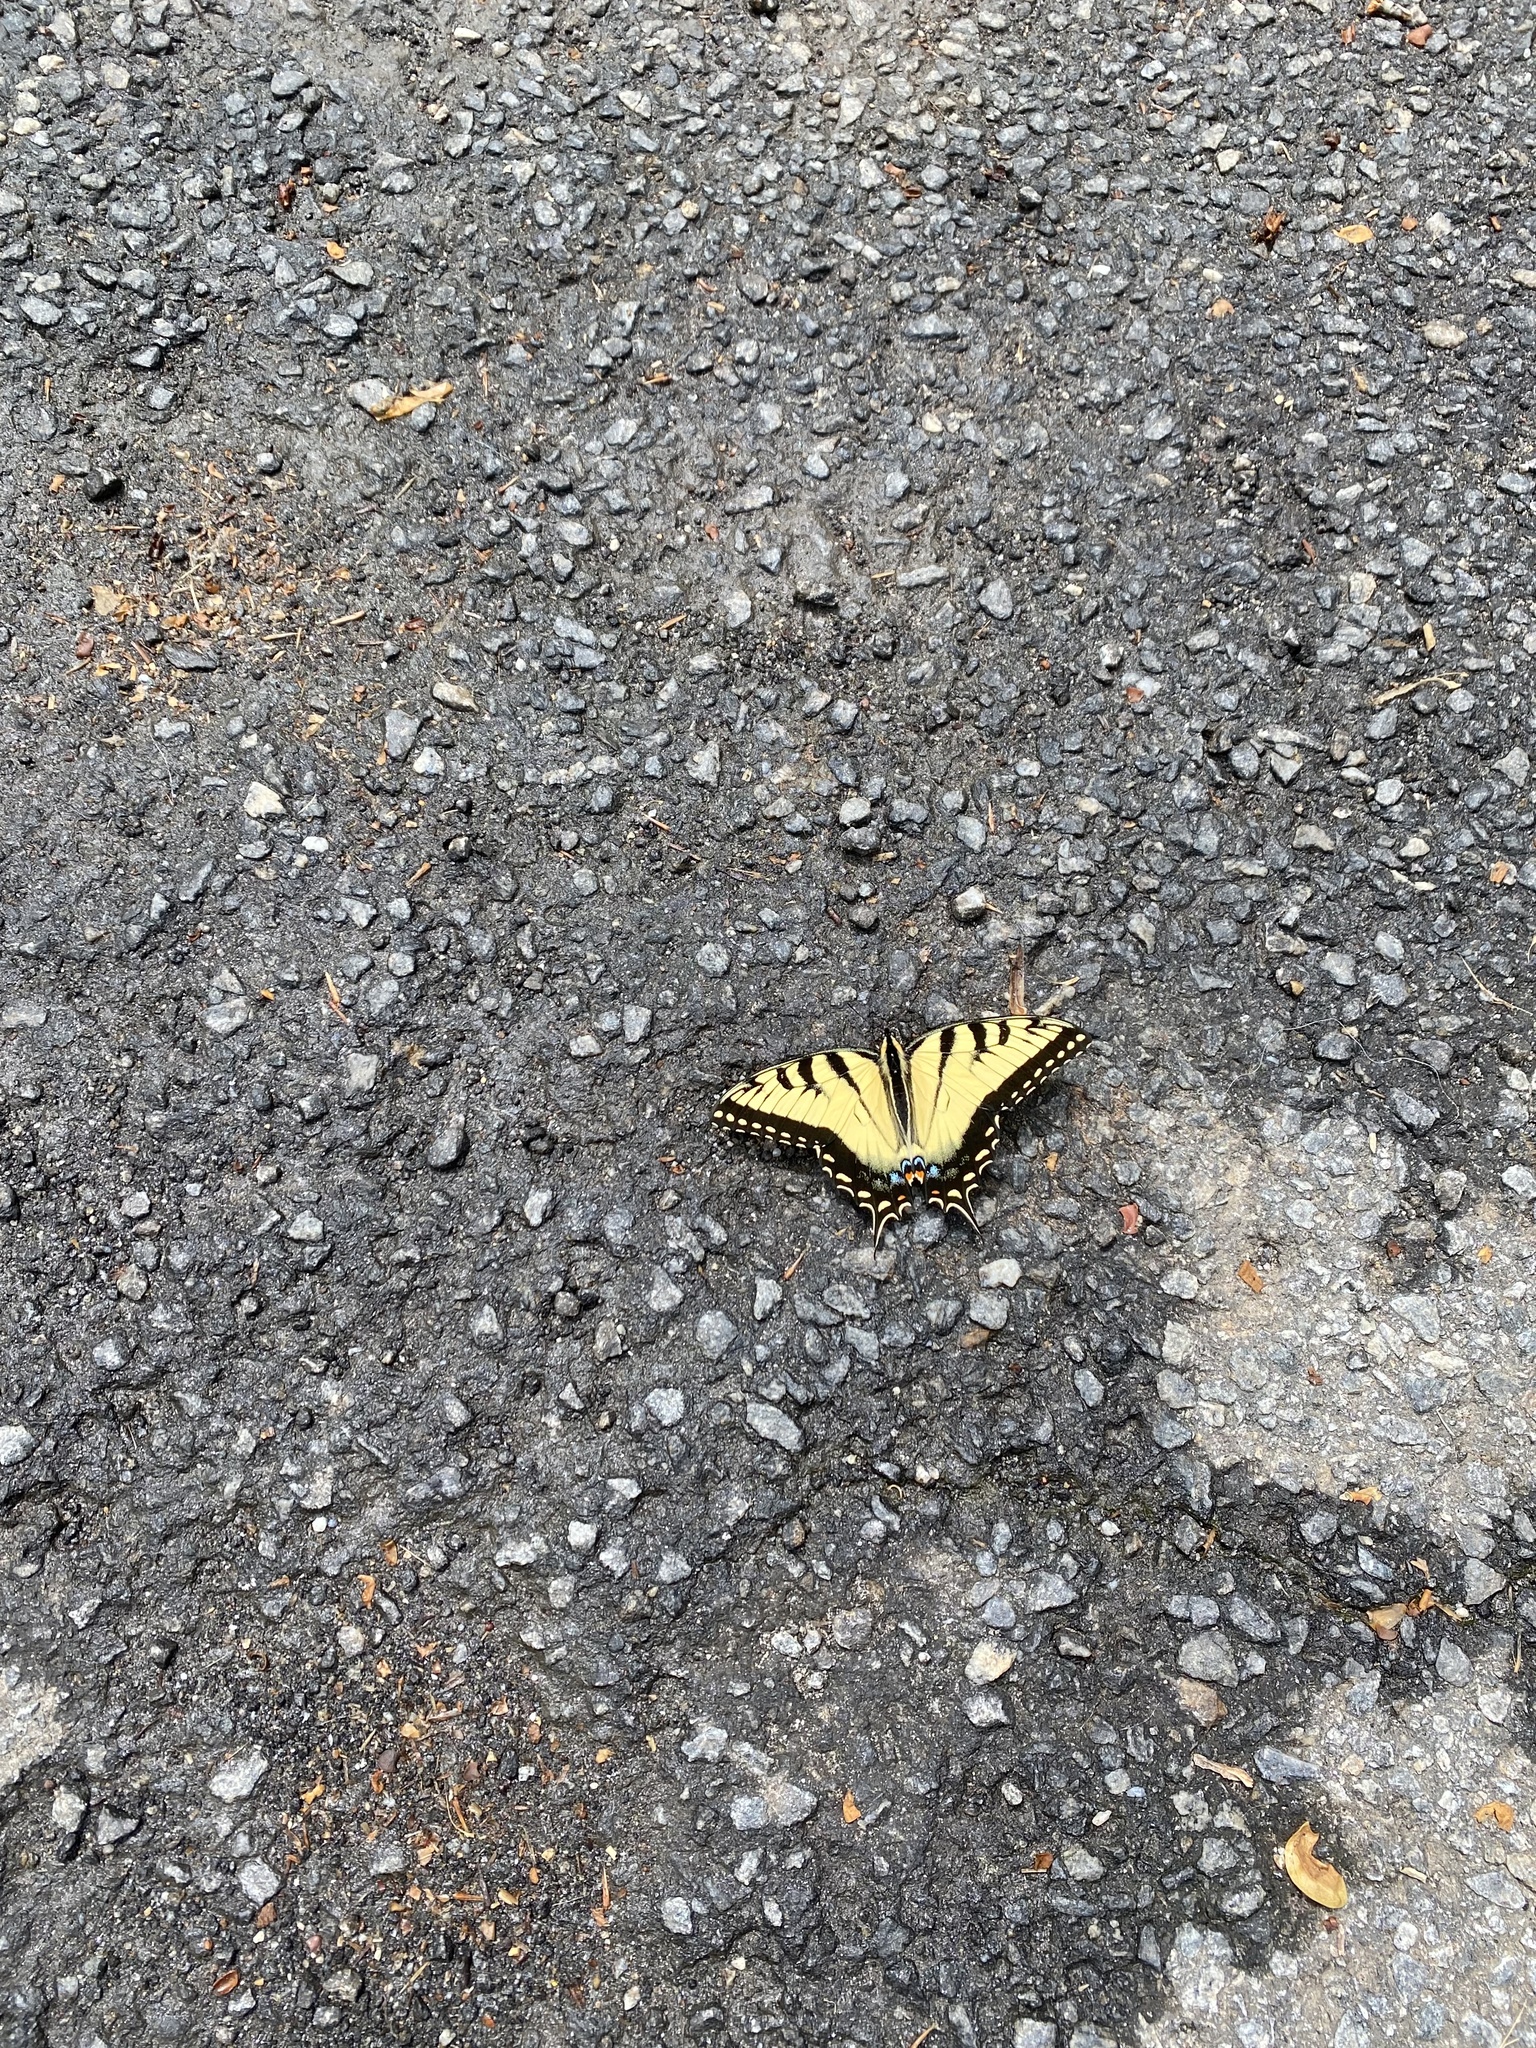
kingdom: Animalia
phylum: Arthropoda
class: Insecta
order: Lepidoptera
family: Papilionidae
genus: Papilio
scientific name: Papilio glaucus
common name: Tiger swallowtail
